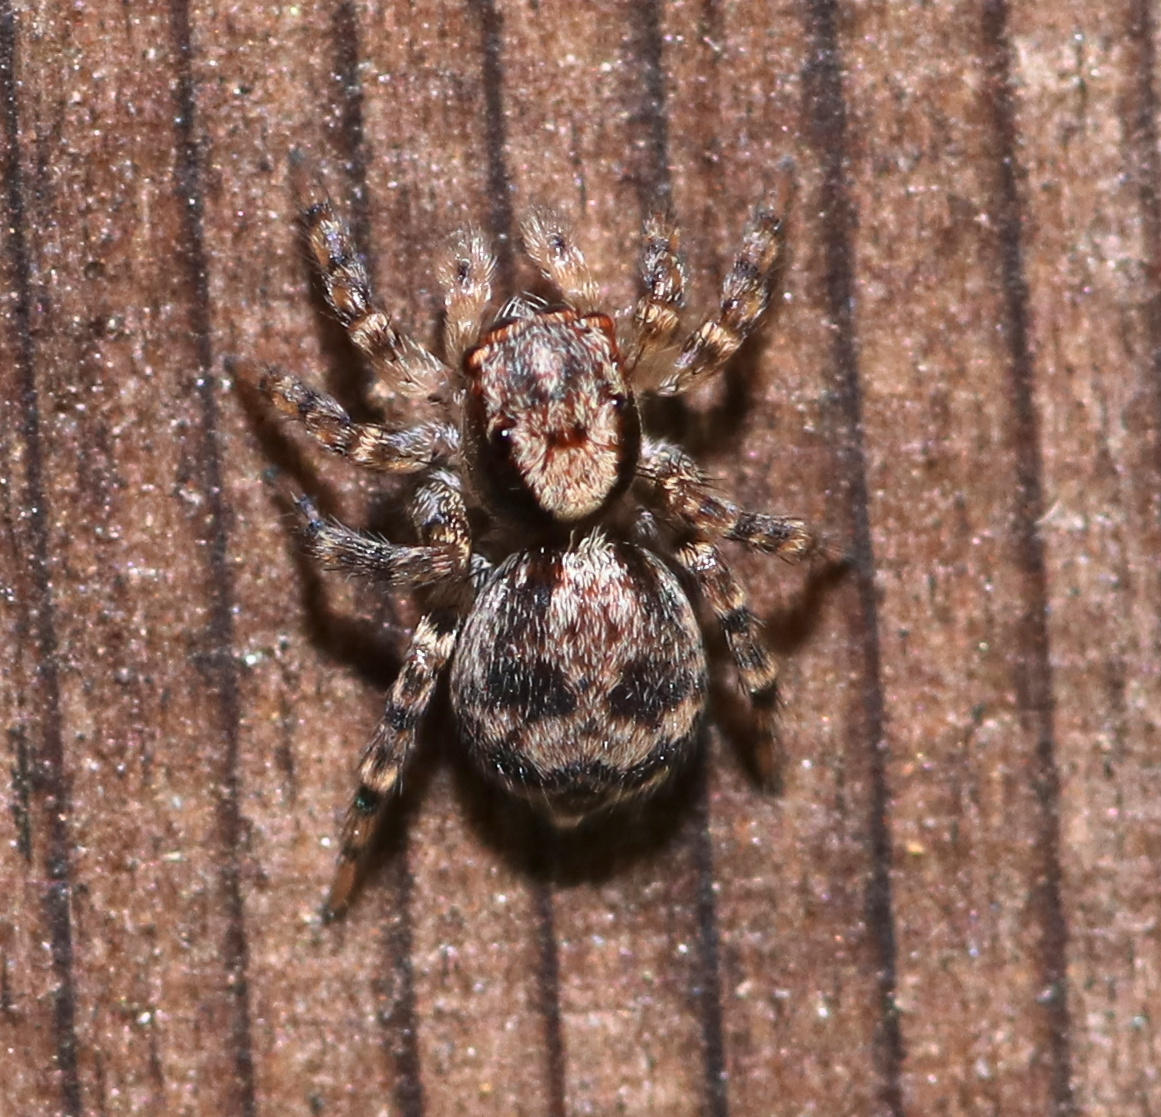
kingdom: Animalia
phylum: Arthropoda
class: Arachnida
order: Araneae
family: Salticidae
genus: Naphrys
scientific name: Naphrys pulex
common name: Flea jumping spider
